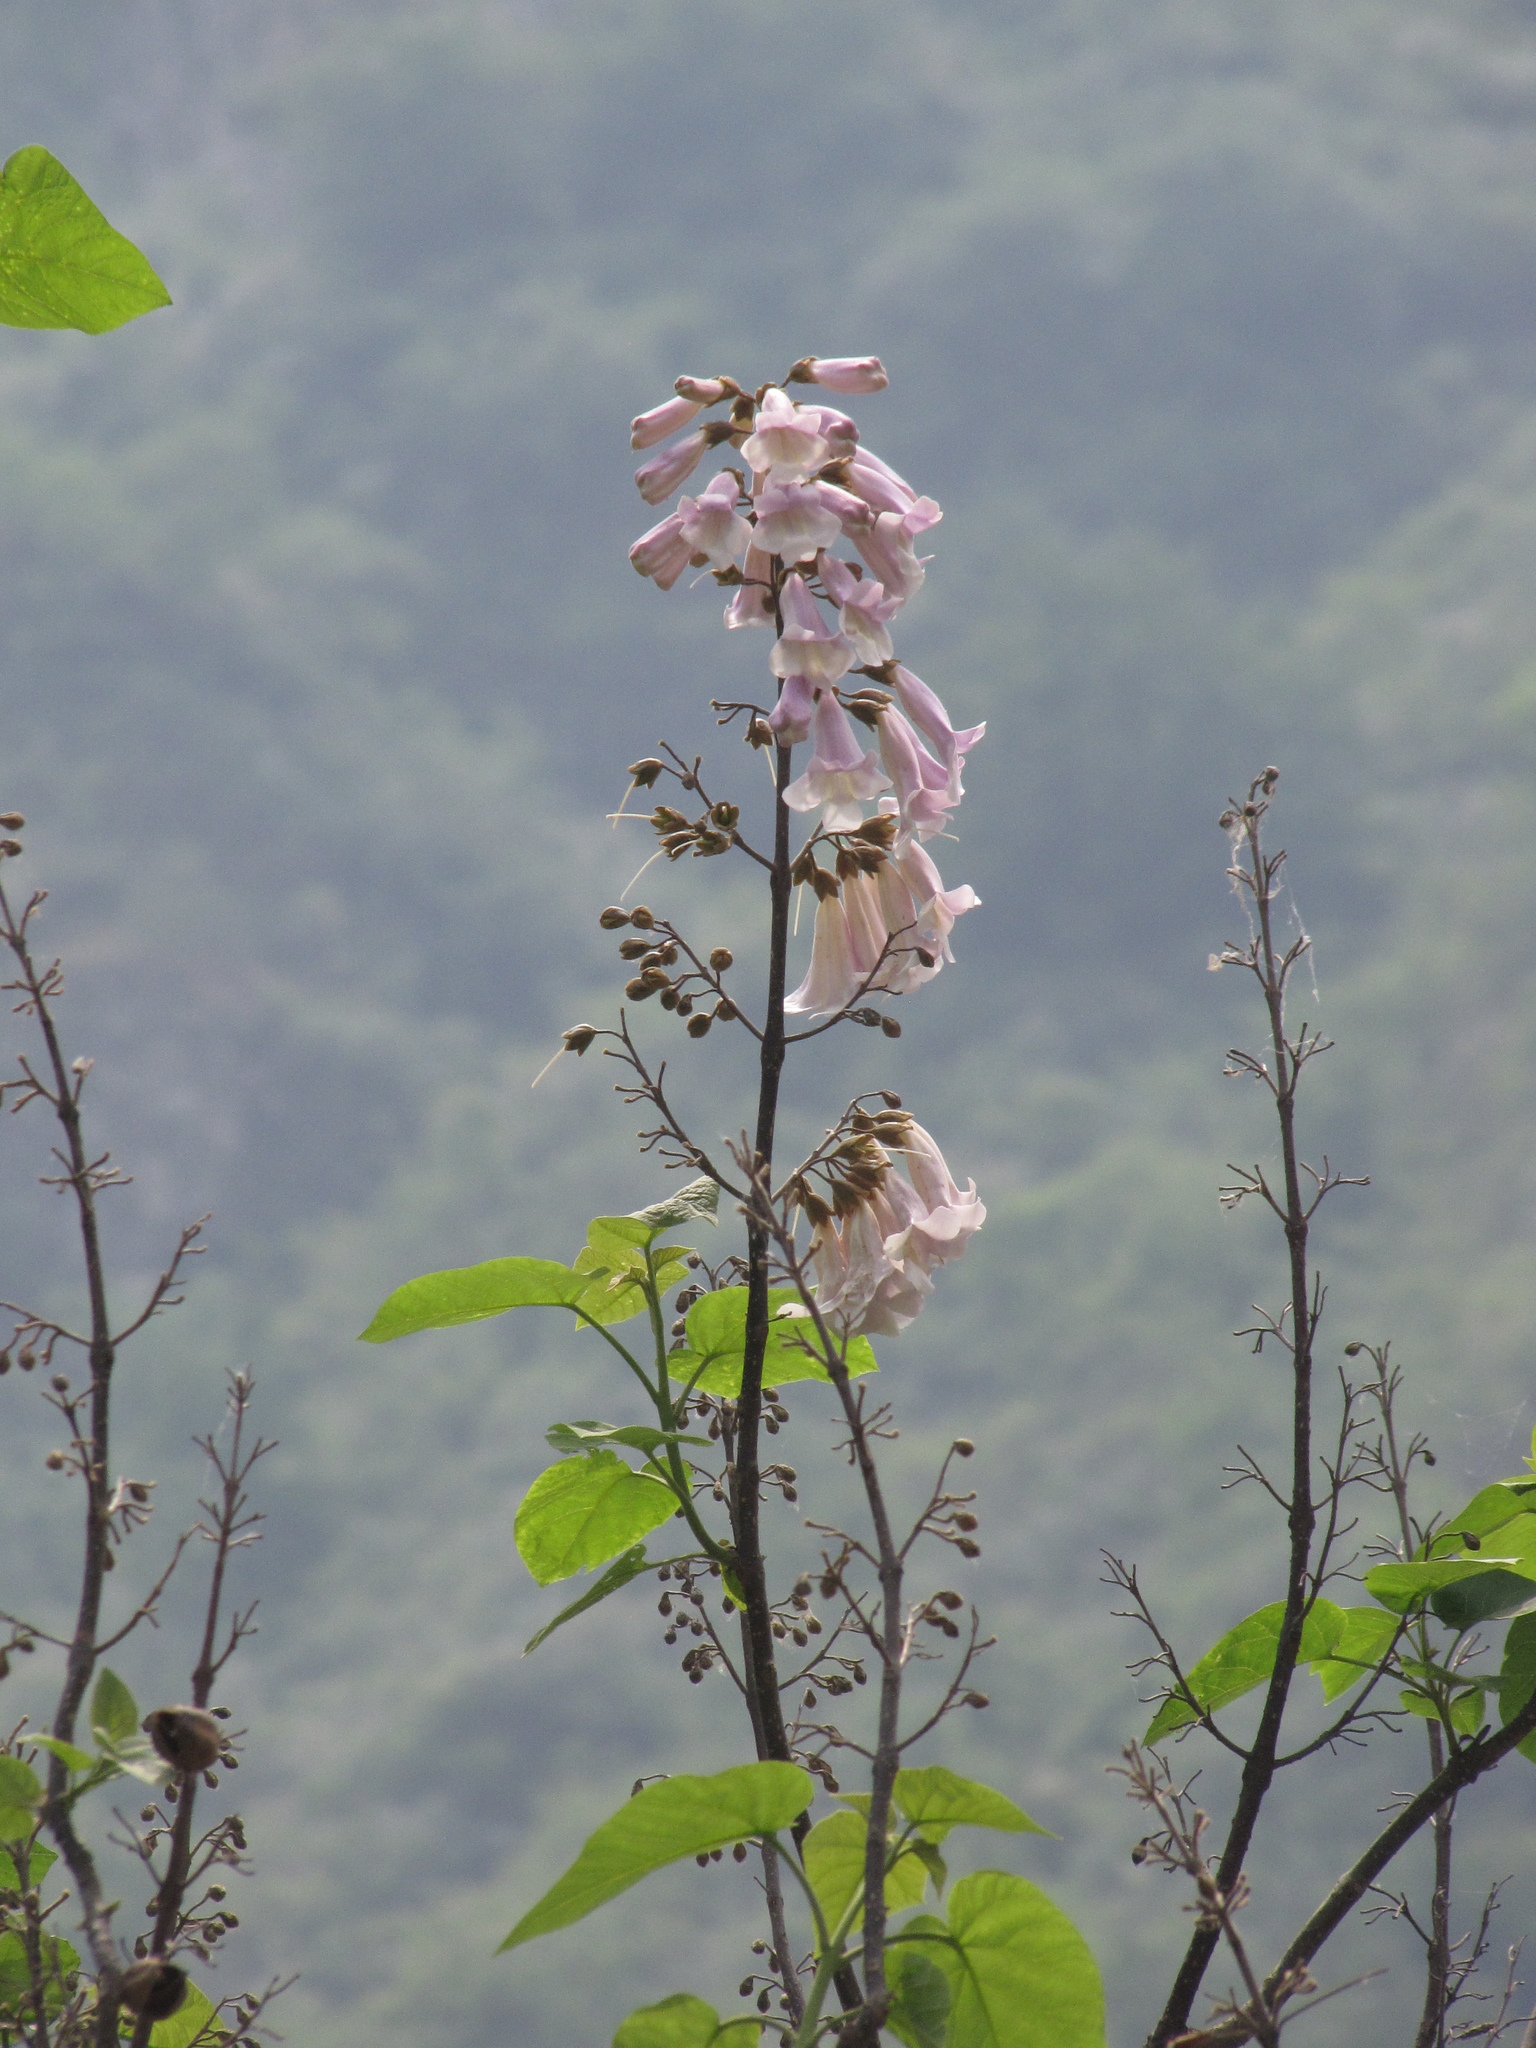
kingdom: Plantae
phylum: Tracheophyta
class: Magnoliopsida
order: Lamiales
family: Paulowniaceae
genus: Paulownia
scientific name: Paulownia tomentosa
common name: Foxglove-tree
